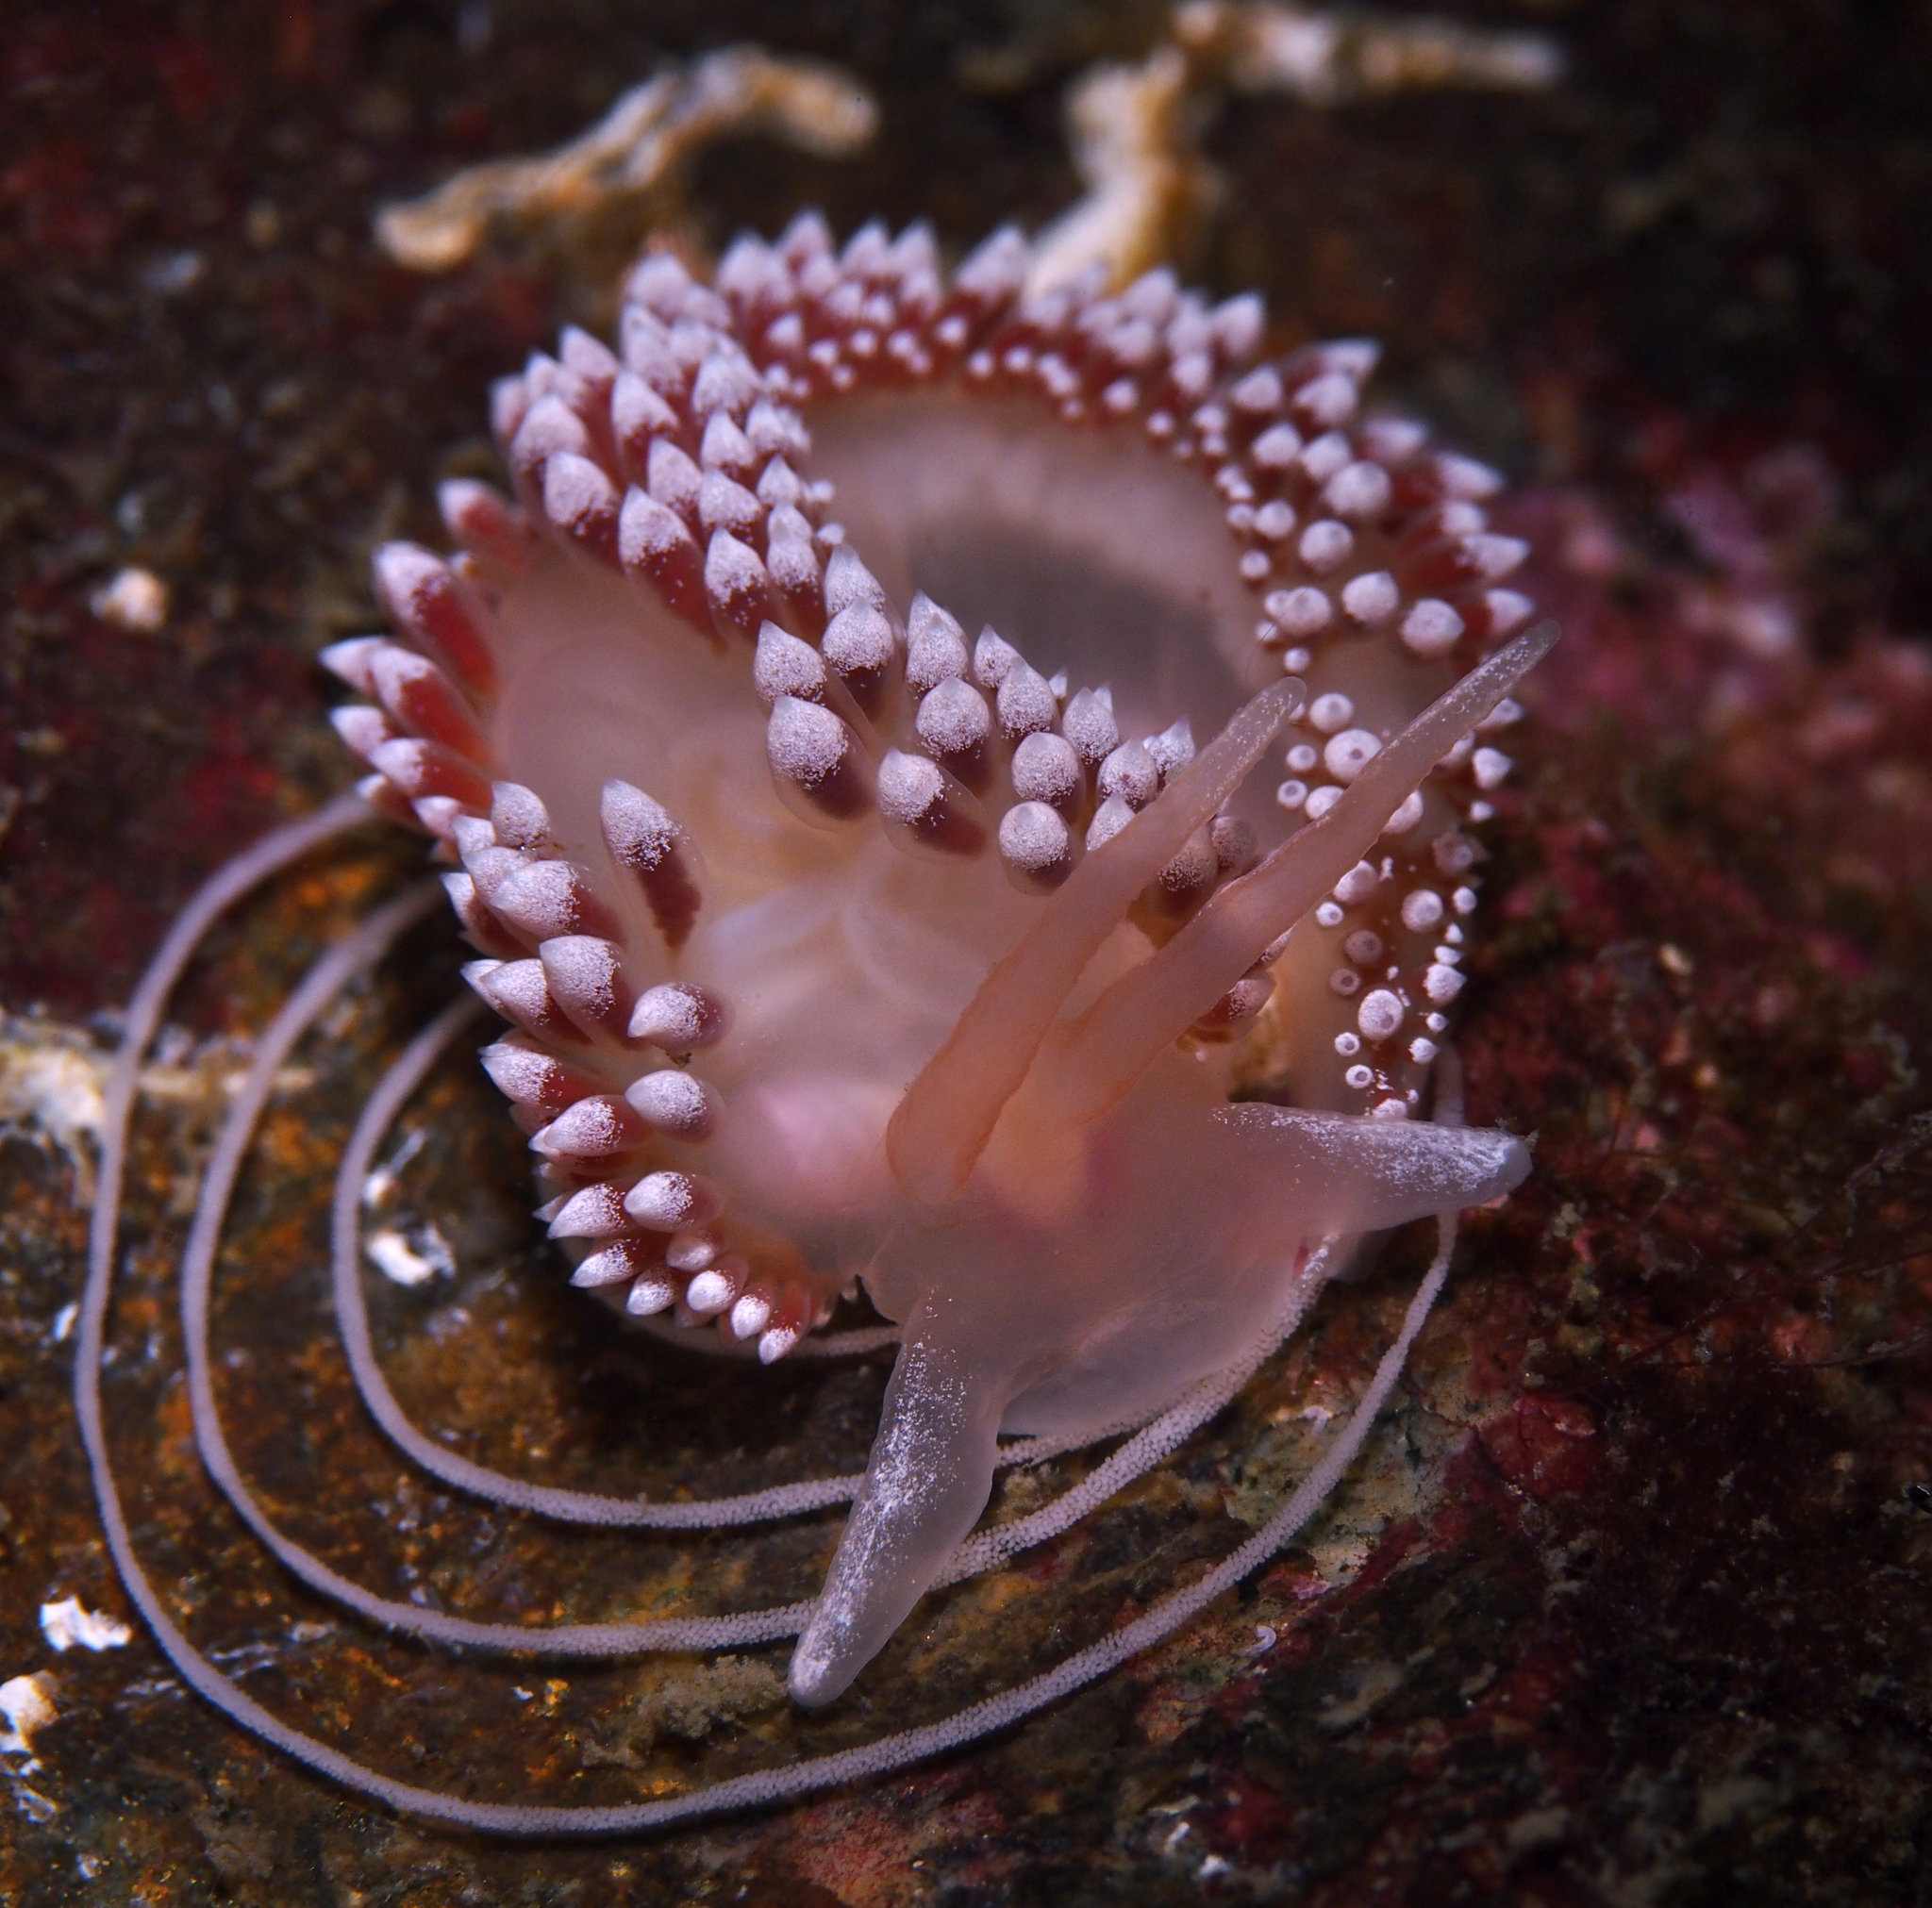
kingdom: Animalia
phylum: Mollusca
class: Gastropoda
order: Nudibranchia
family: Coryphellidae
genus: Coryphella
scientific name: Coryphella verrucosa
